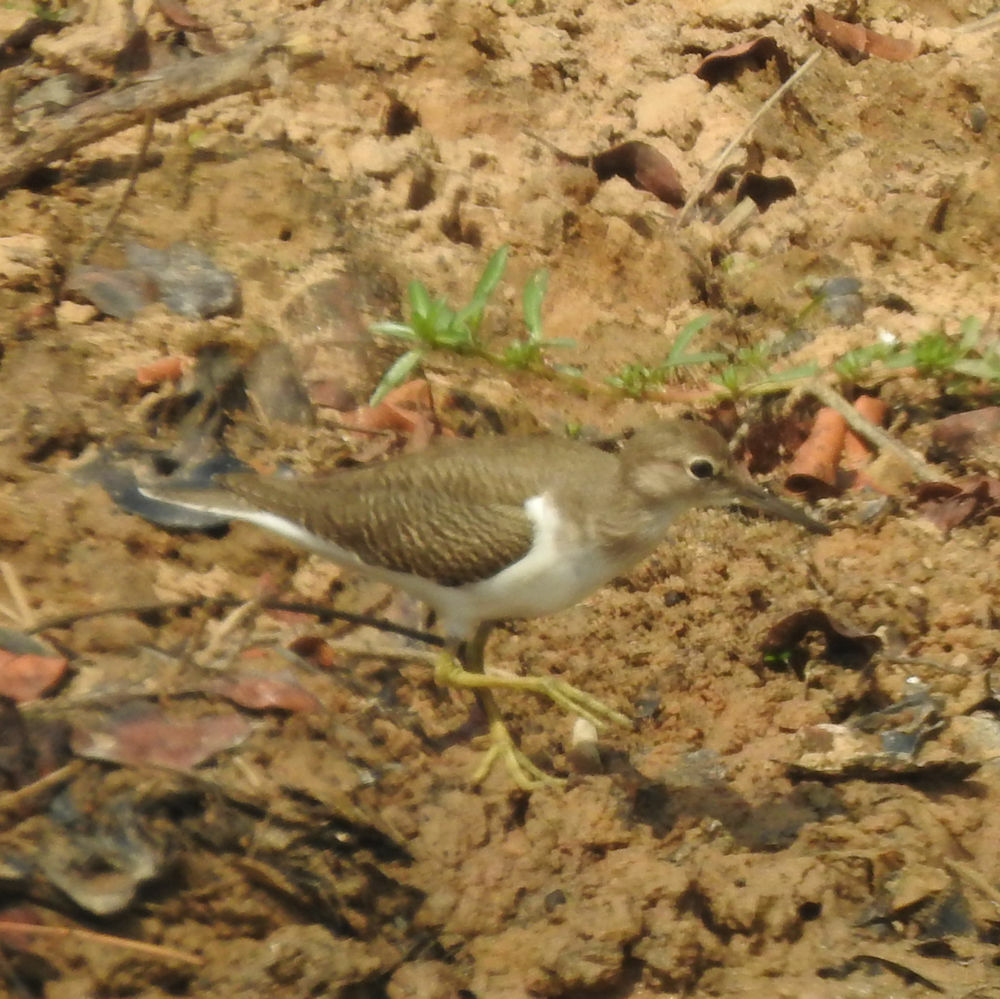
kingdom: Animalia
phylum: Chordata
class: Aves
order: Charadriiformes
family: Scolopacidae
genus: Actitis
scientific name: Actitis hypoleucos
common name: Common sandpiper
